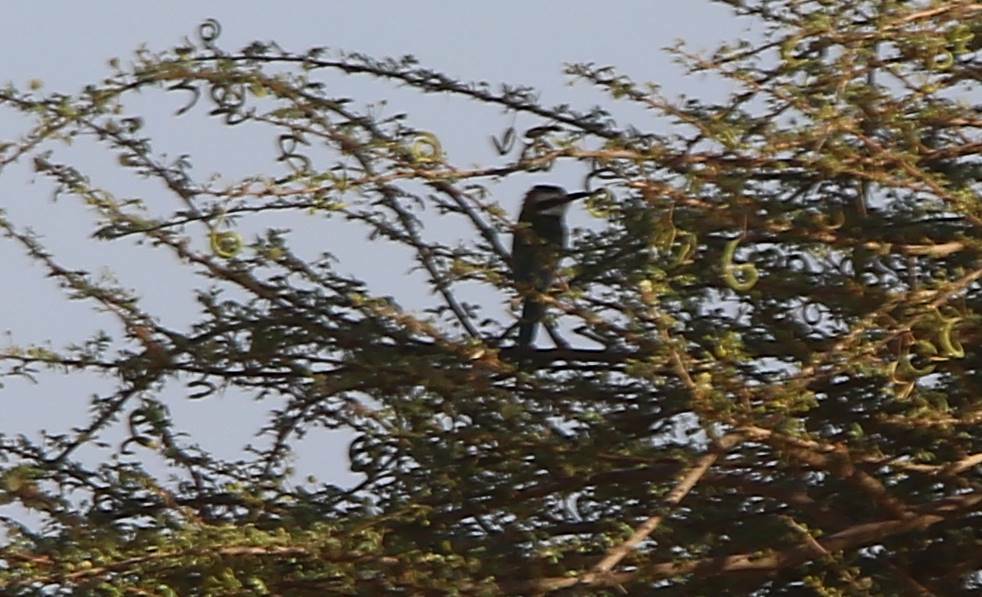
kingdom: Animalia
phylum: Chordata
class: Aves
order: Coraciiformes
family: Meropidae
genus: Merops
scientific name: Merops albicollis
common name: White-throated bee-eater
